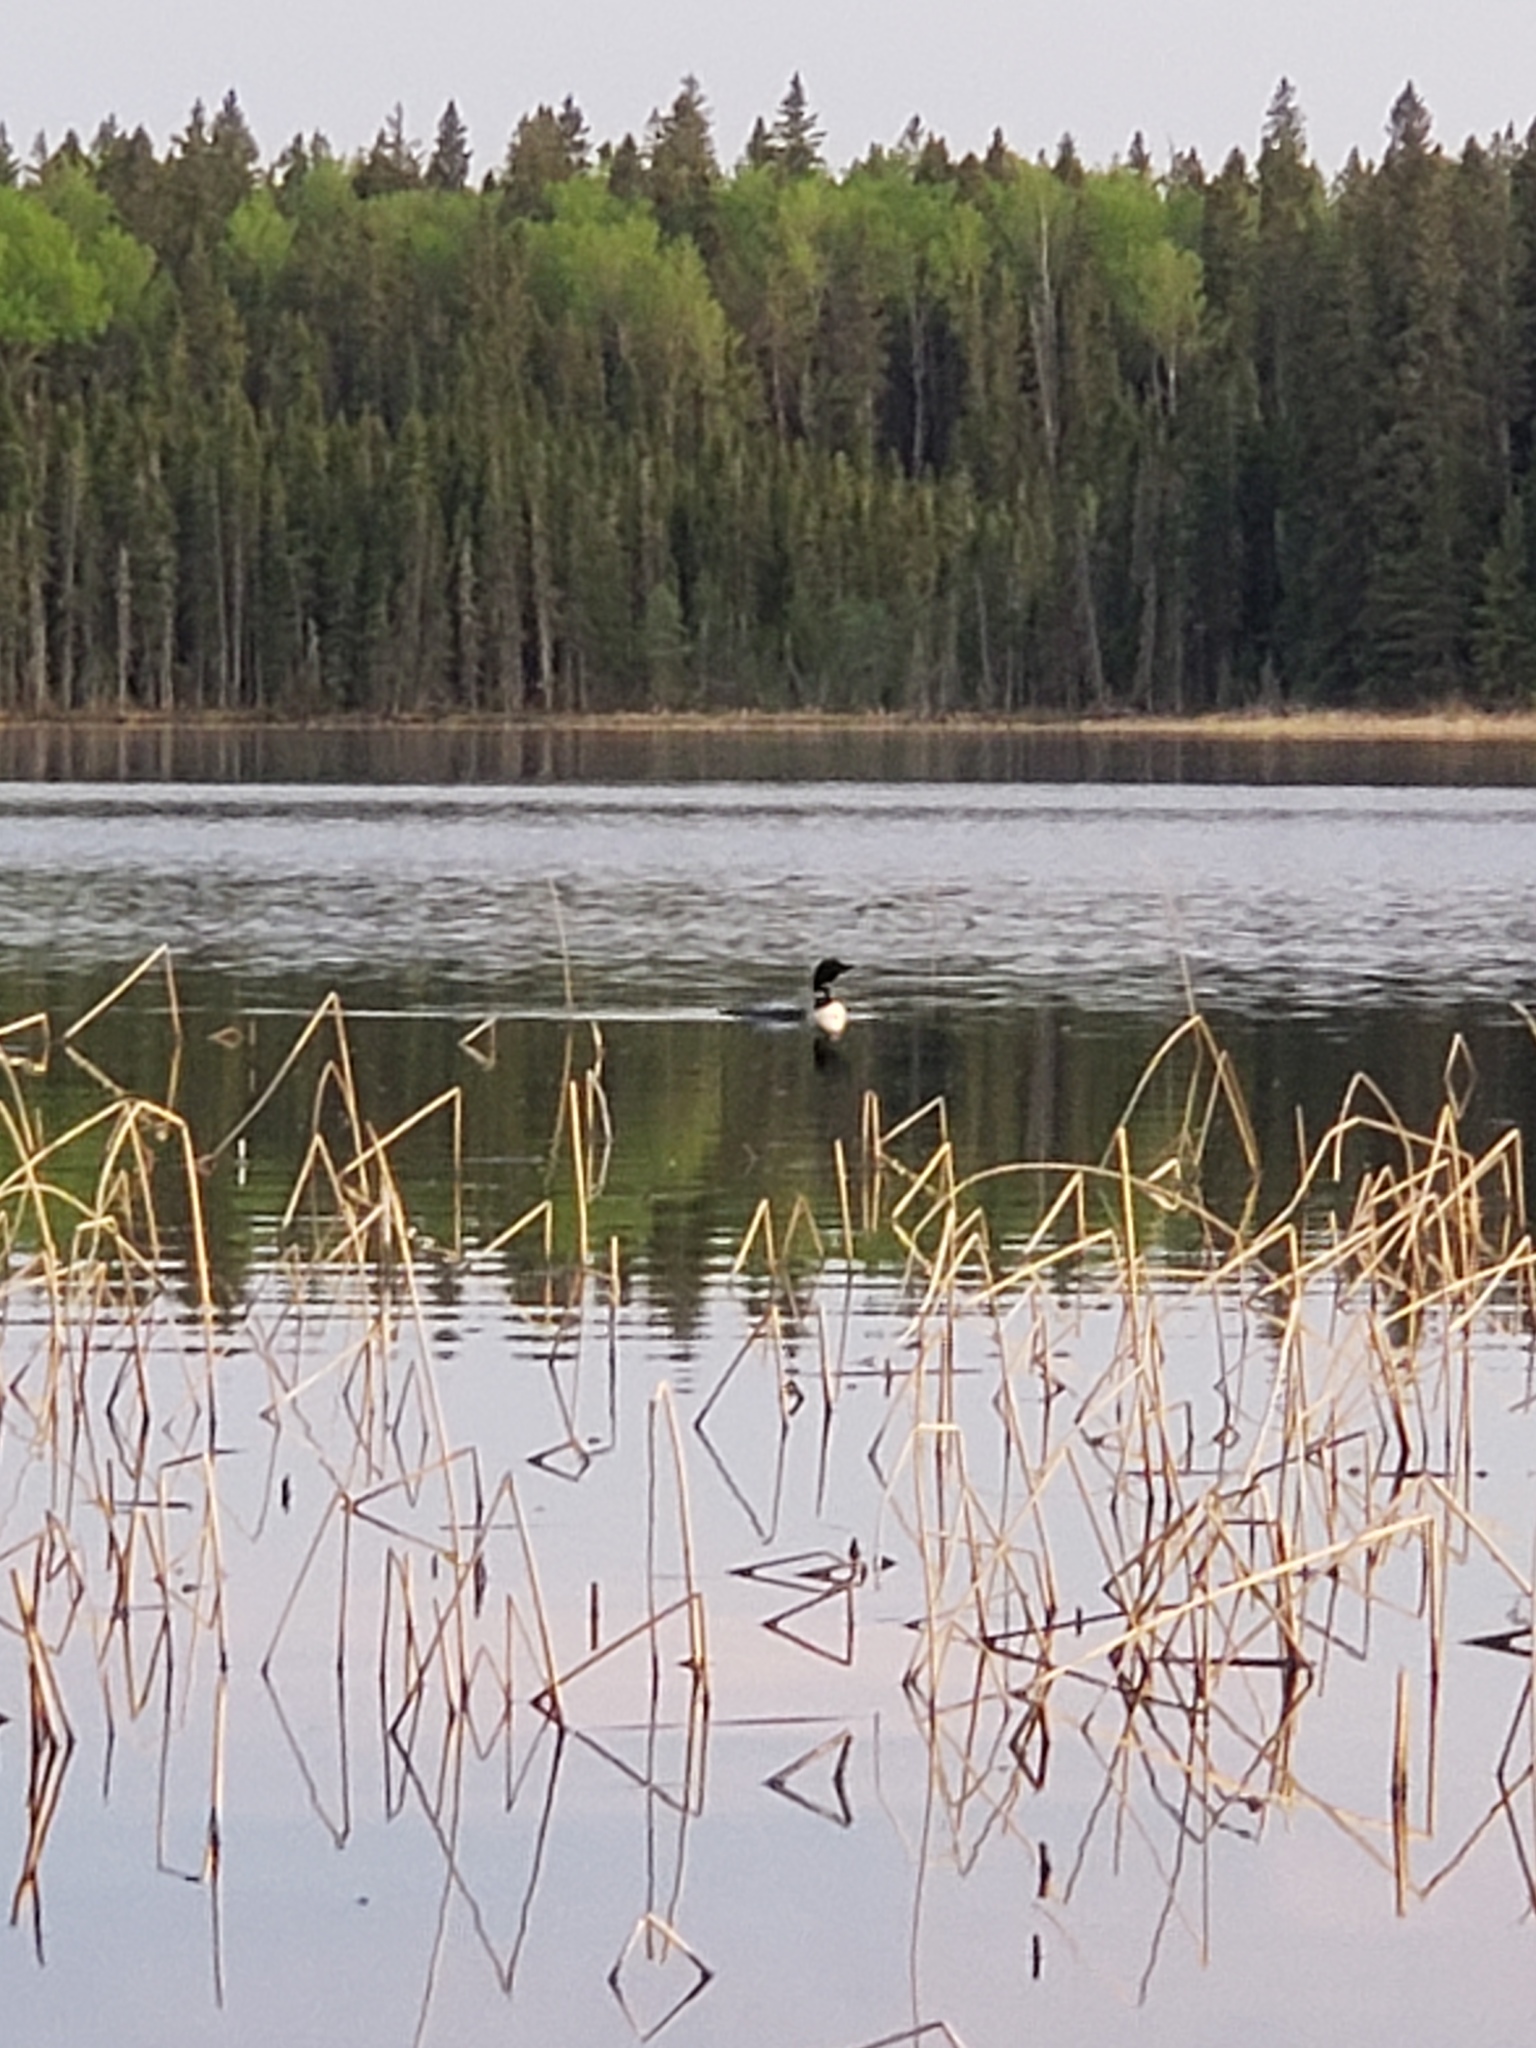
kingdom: Animalia
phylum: Chordata
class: Aves
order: Gaviiformes
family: Gaviidae
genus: Gavia
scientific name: Gavia immer
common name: Common loon
